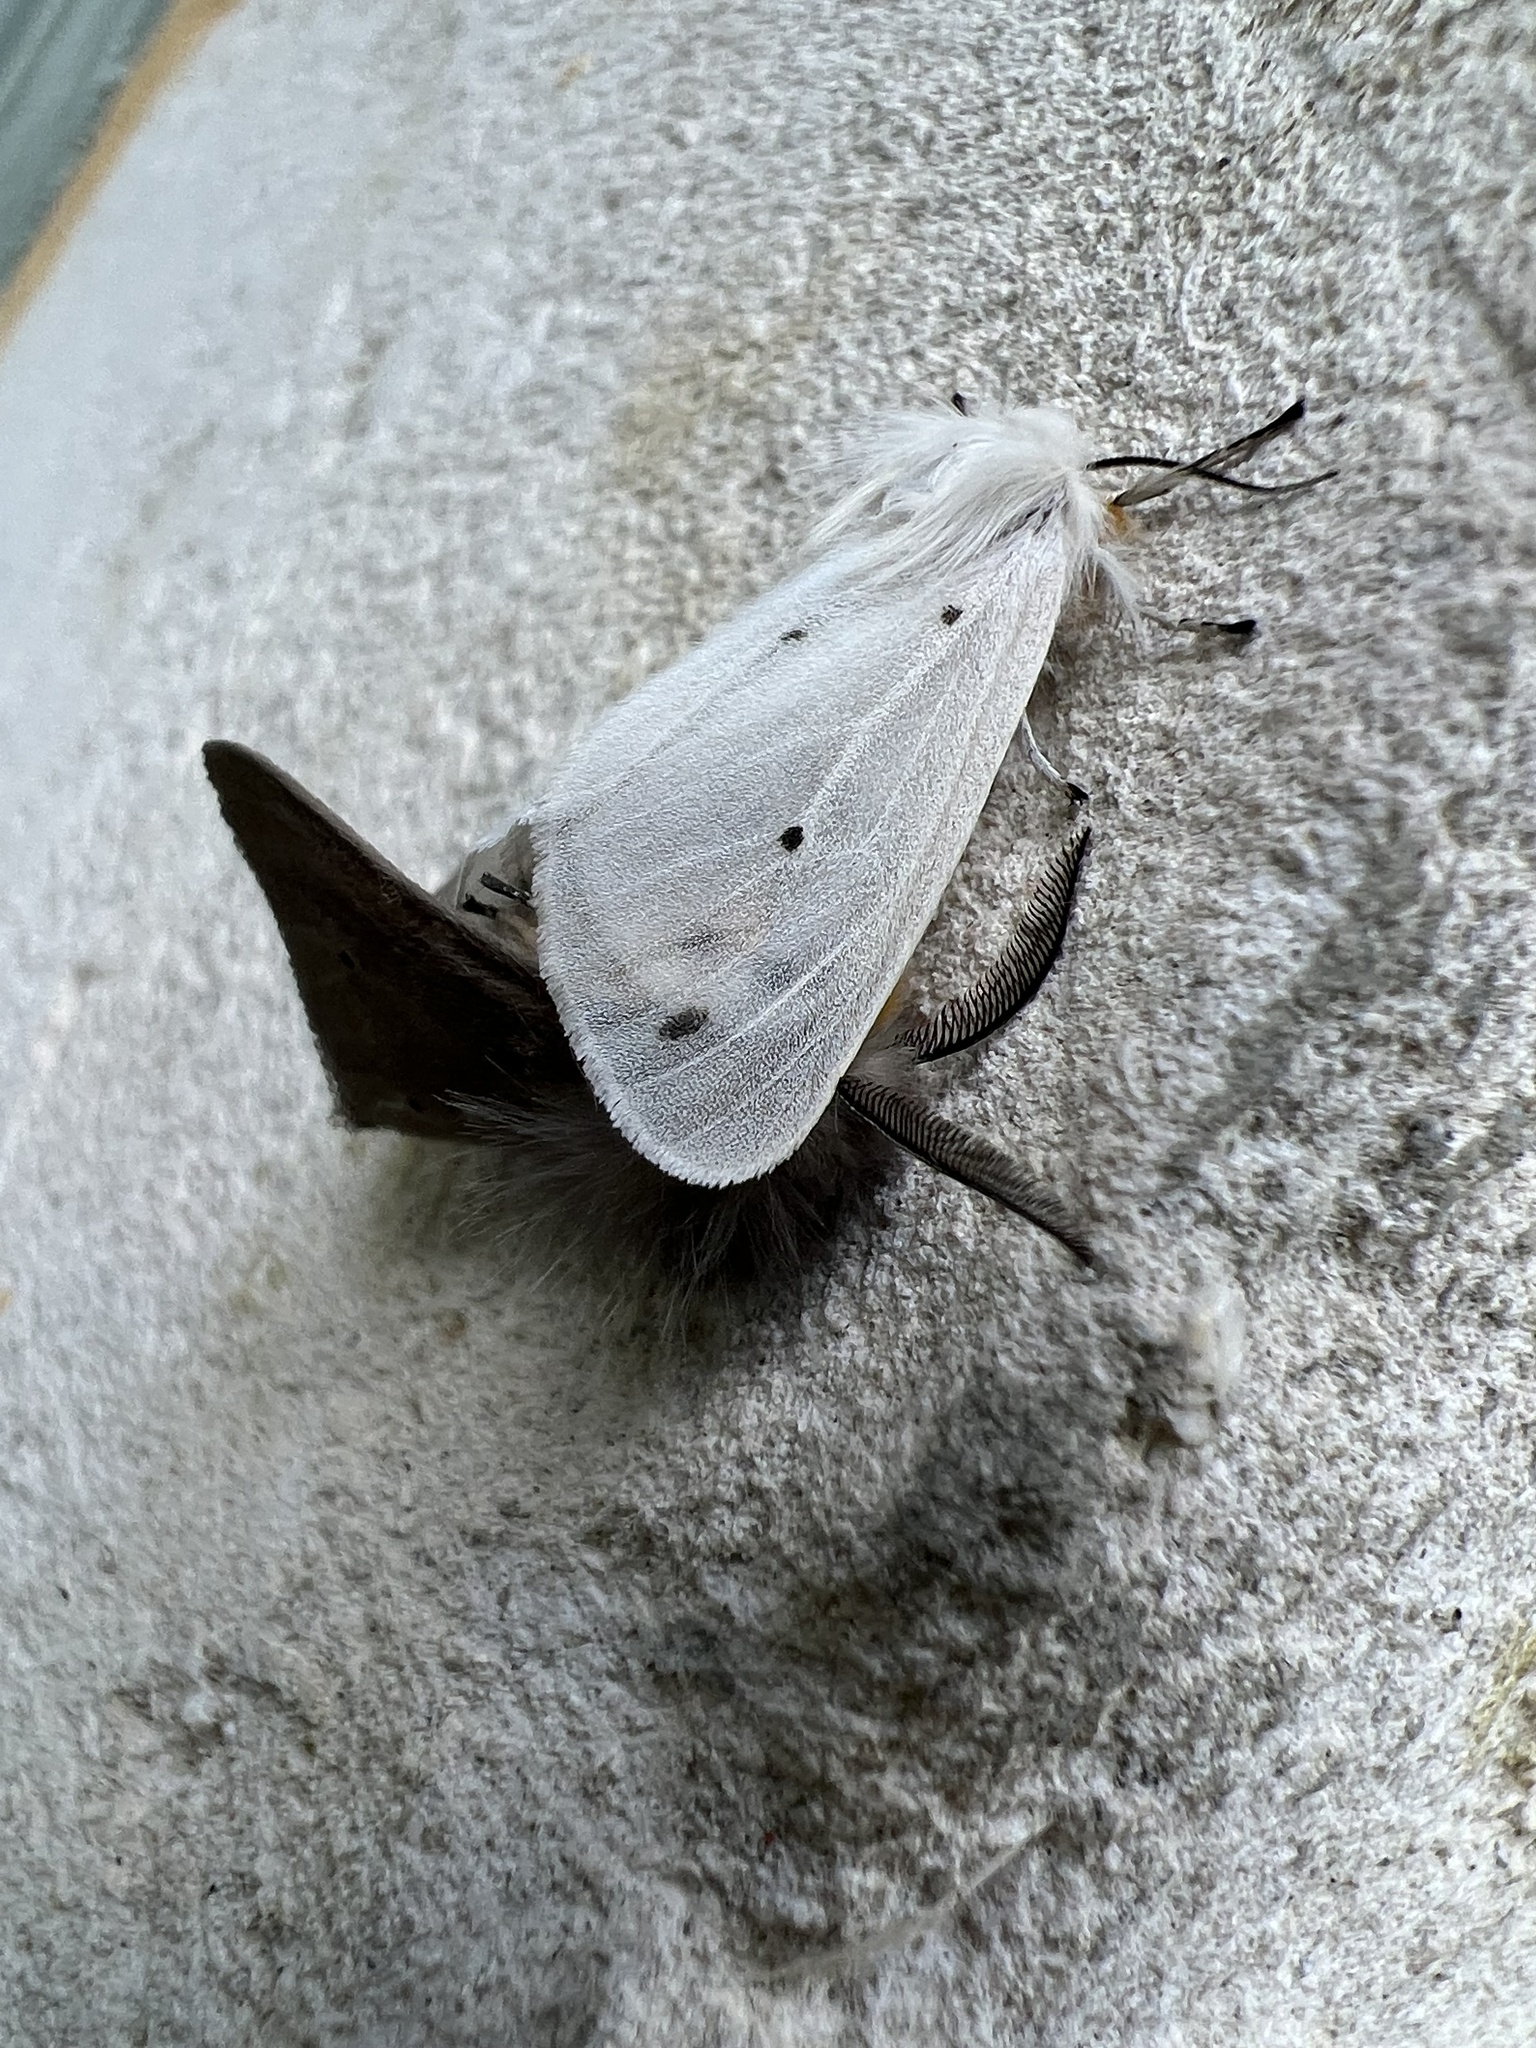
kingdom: Animalia
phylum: Arthropoda
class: Insecta
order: Lepidoptera
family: Erebidae
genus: Diaphora
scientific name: Diaphora mendica
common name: Muslin moth
